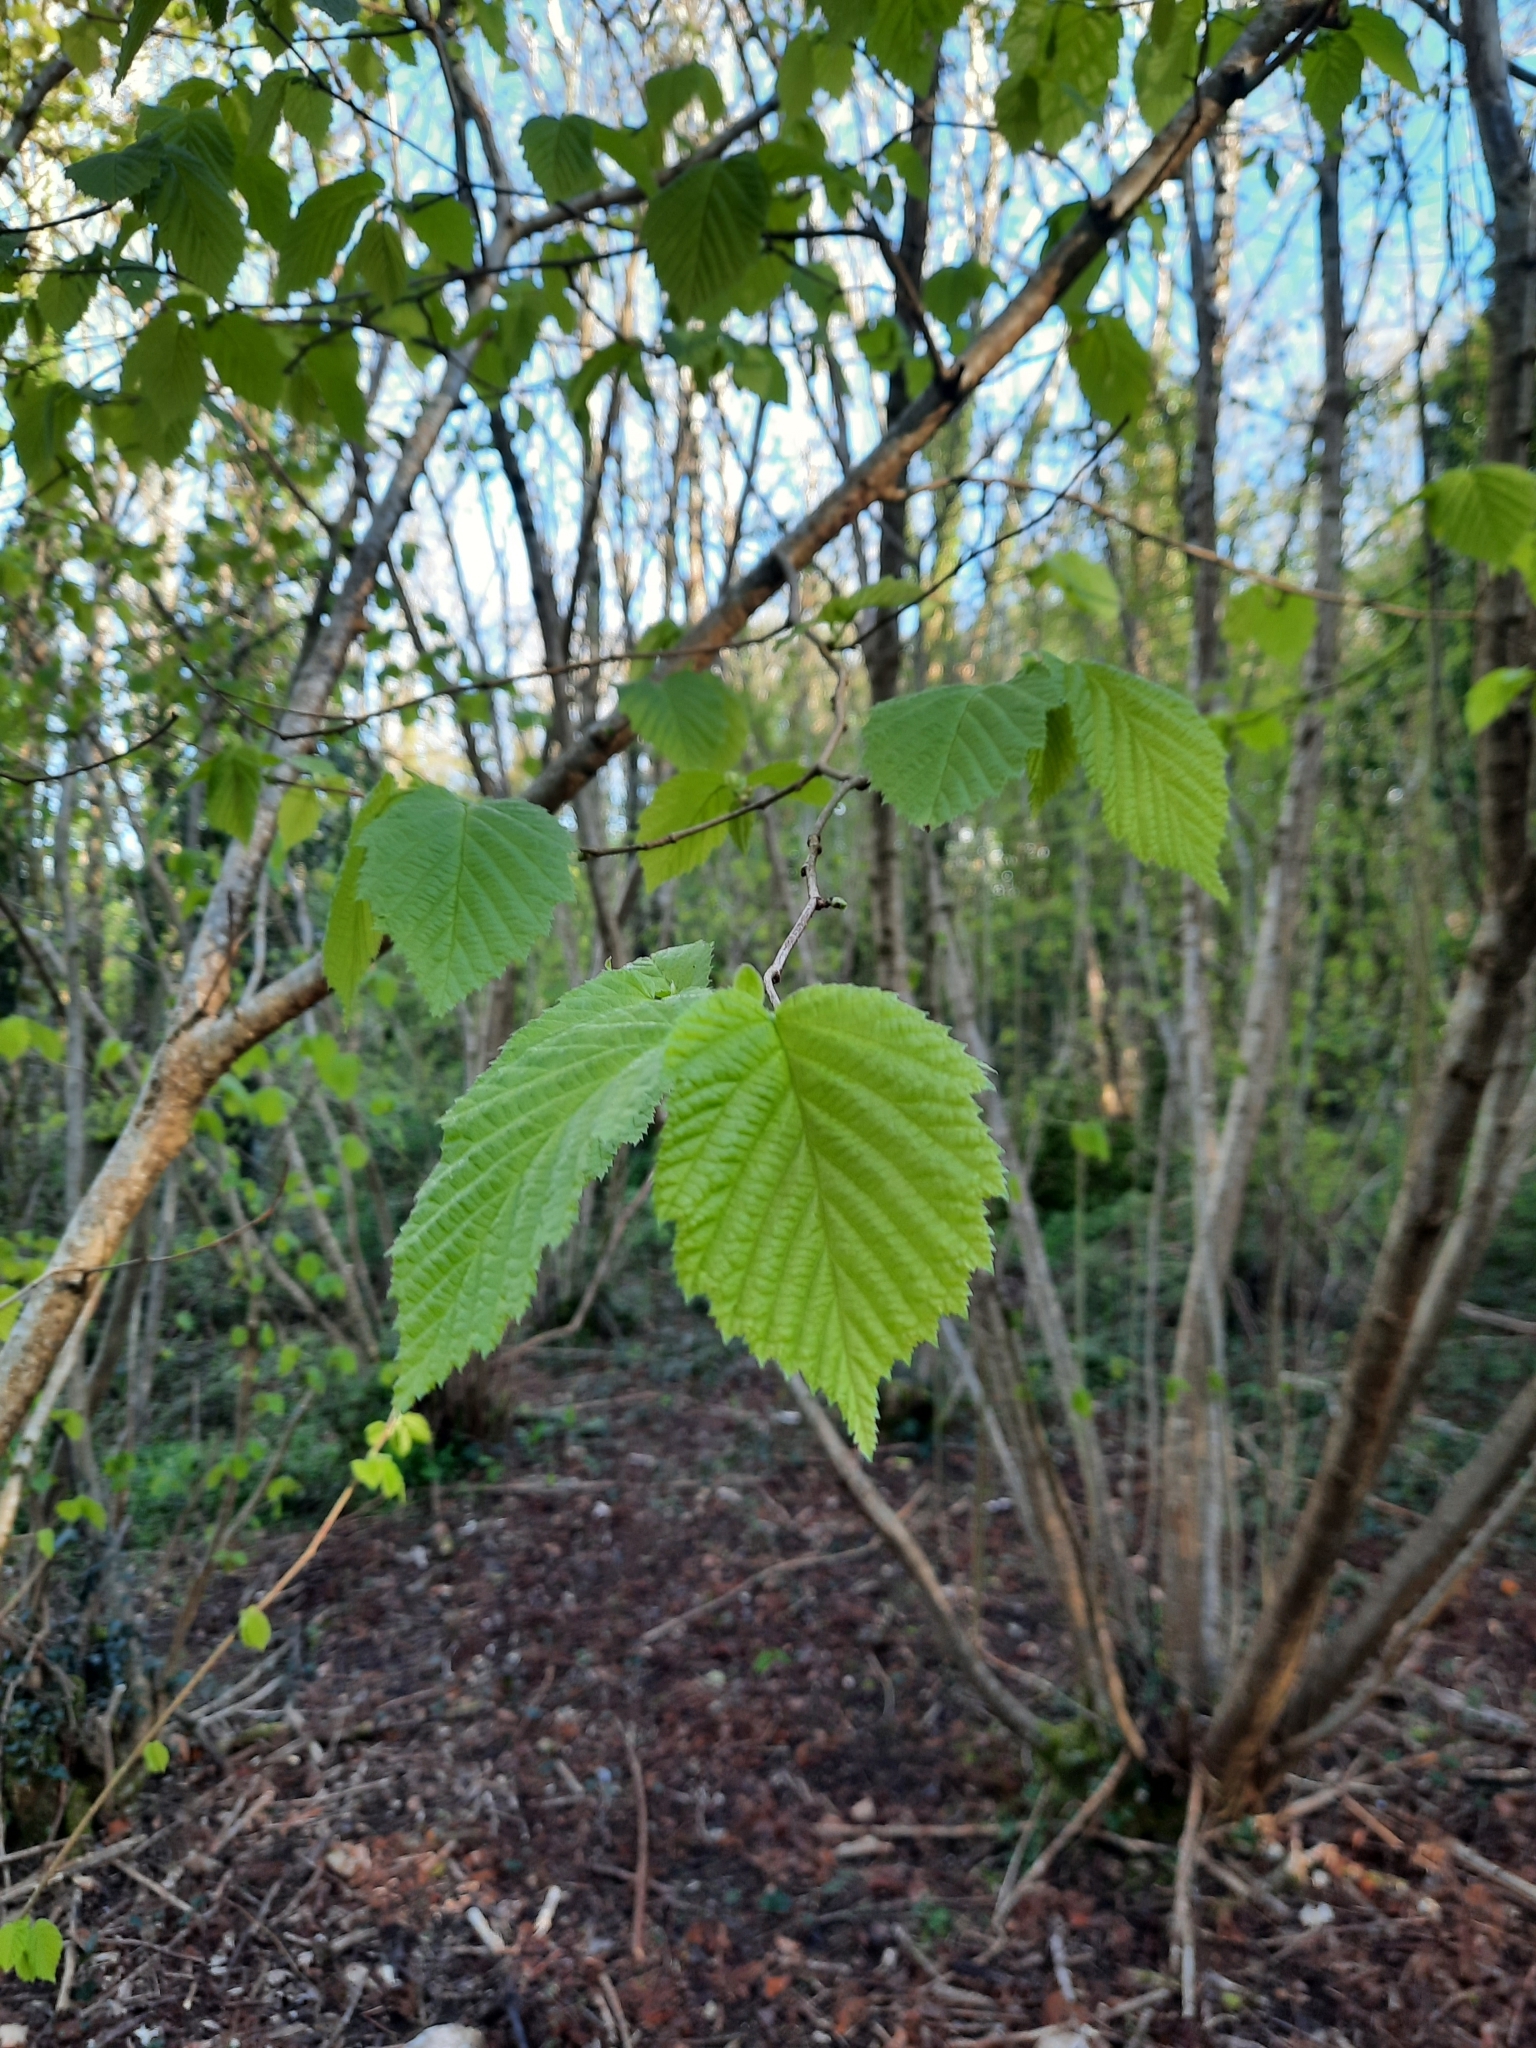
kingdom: Plantae
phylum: Tracheophyta
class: Magnoliopsida
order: Fagales
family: Betulaceae
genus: Corylus
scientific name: Corylus avellana
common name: European hazel
